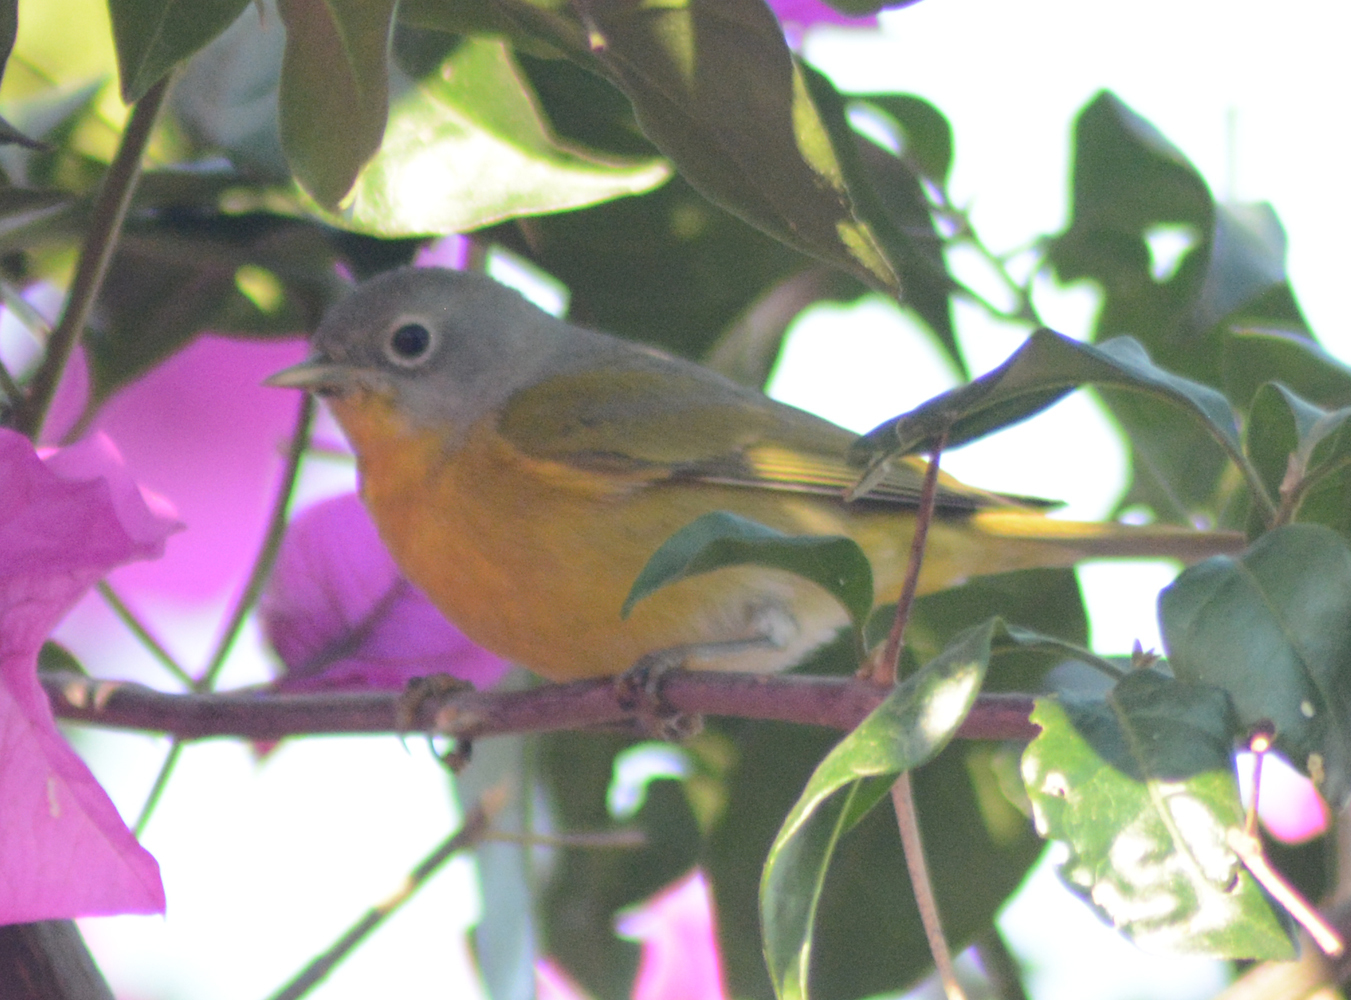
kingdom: Animalia
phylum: Chordata
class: Aves
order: Passeriformes
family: Parulidae
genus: Leiothlypis
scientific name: Leiothlypis ruficapilla
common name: Nashville warbler
